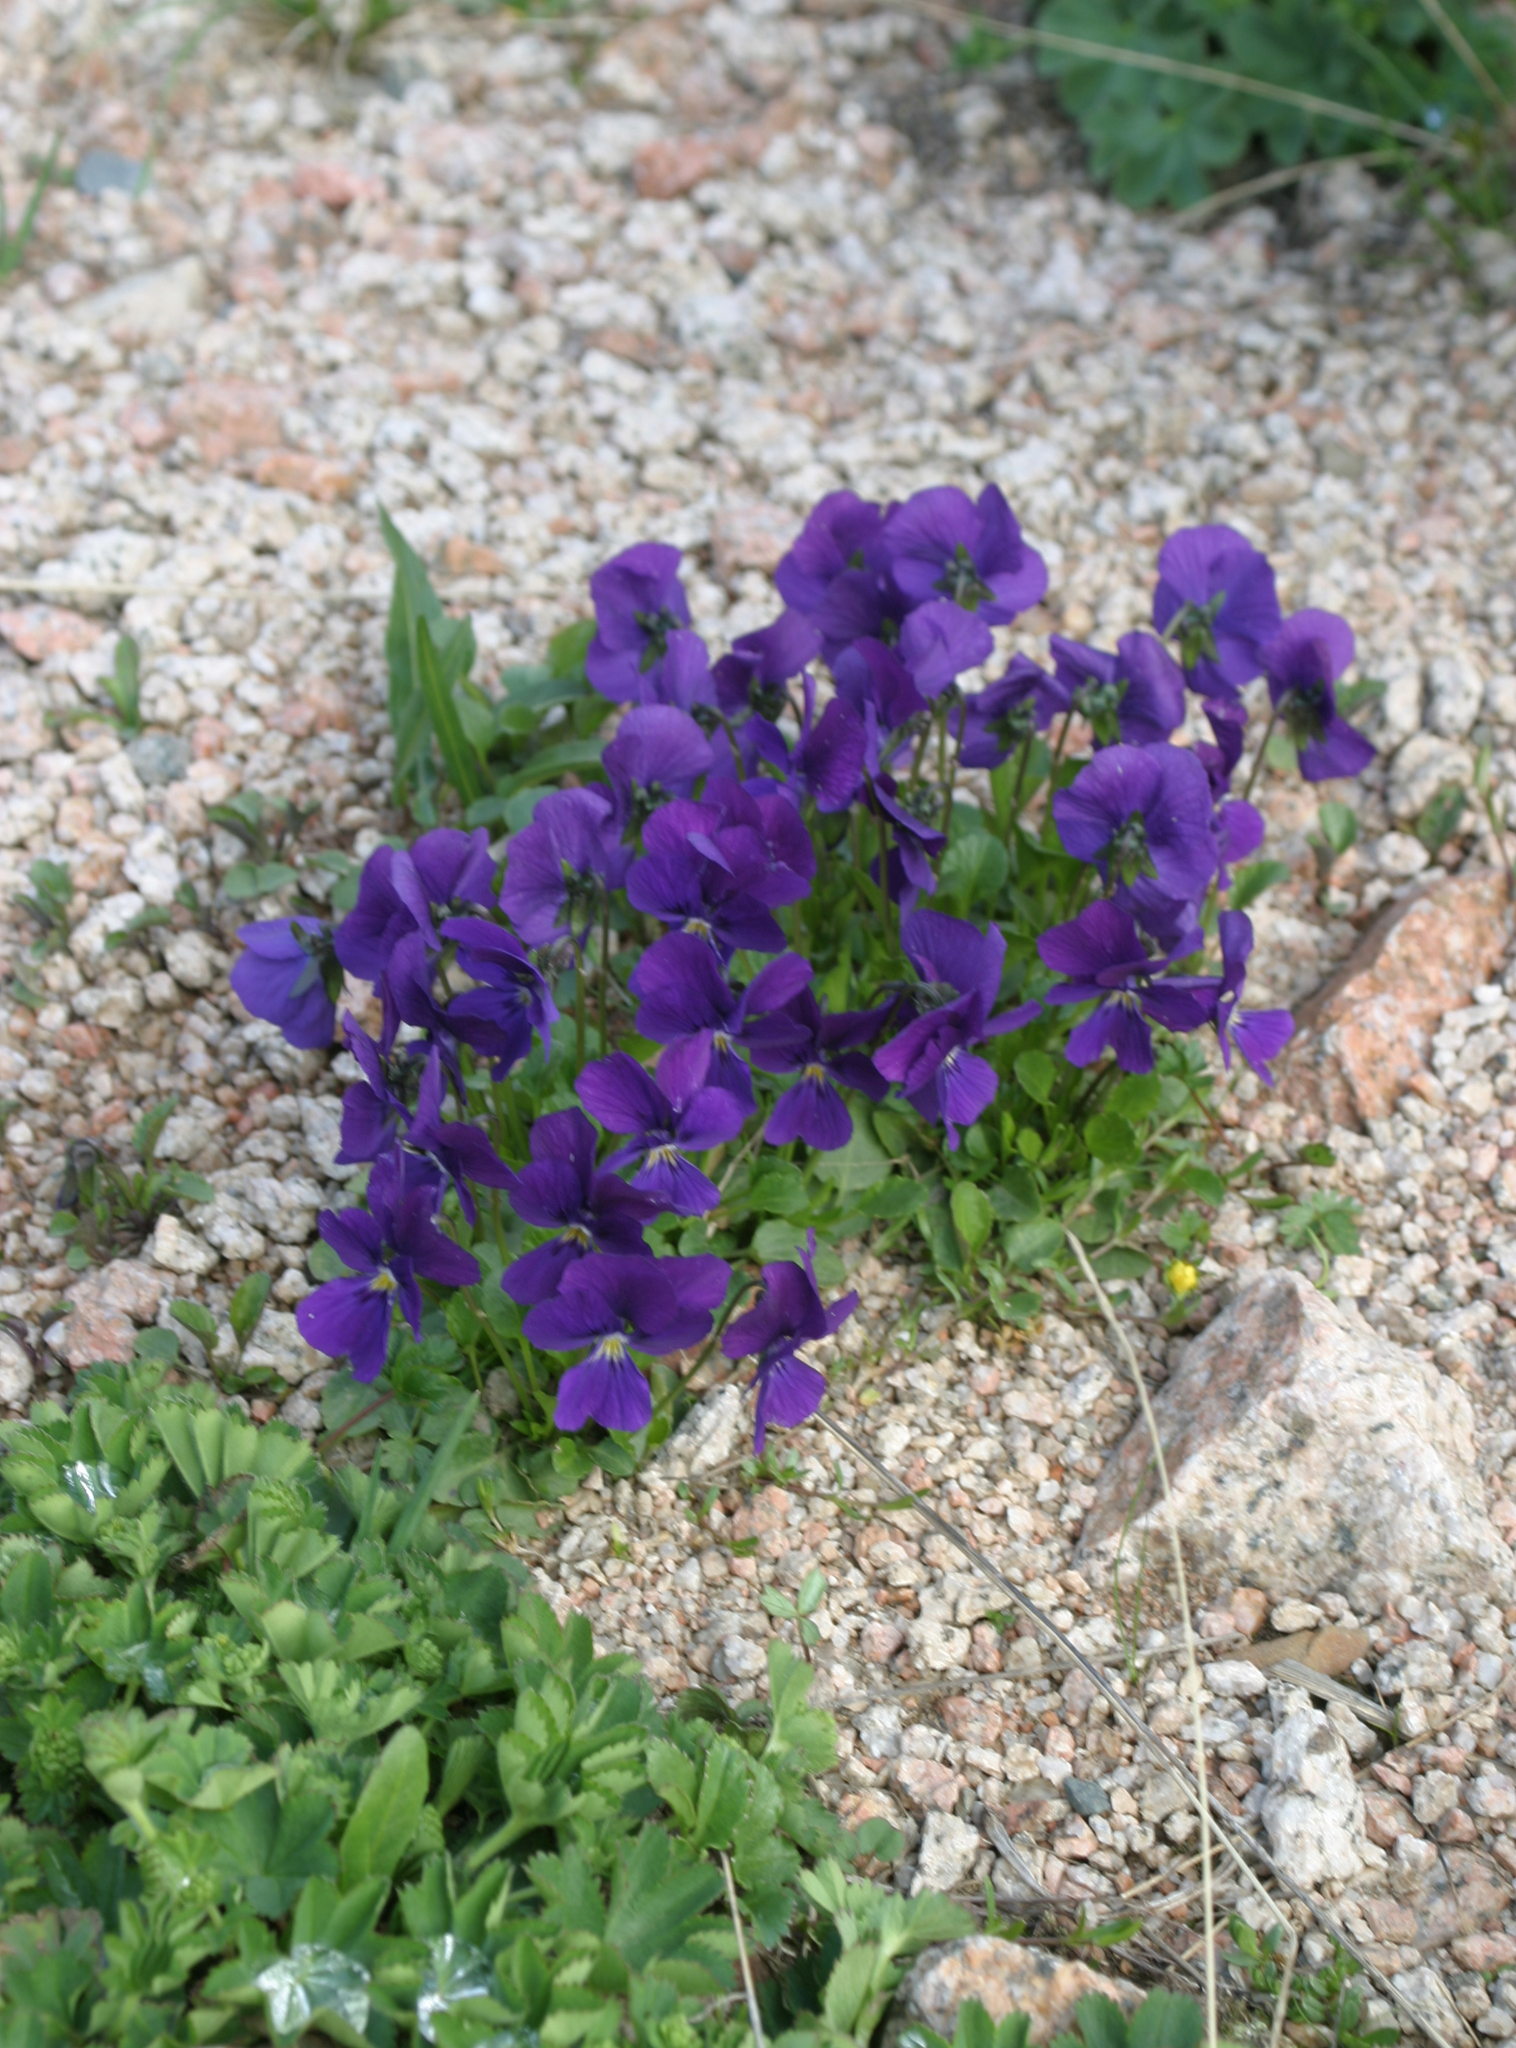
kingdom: Plantae
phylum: Tracheophyta
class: Magnoliopsida
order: Malpighiales
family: Violaceae
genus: Viola
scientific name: Viola altaica
